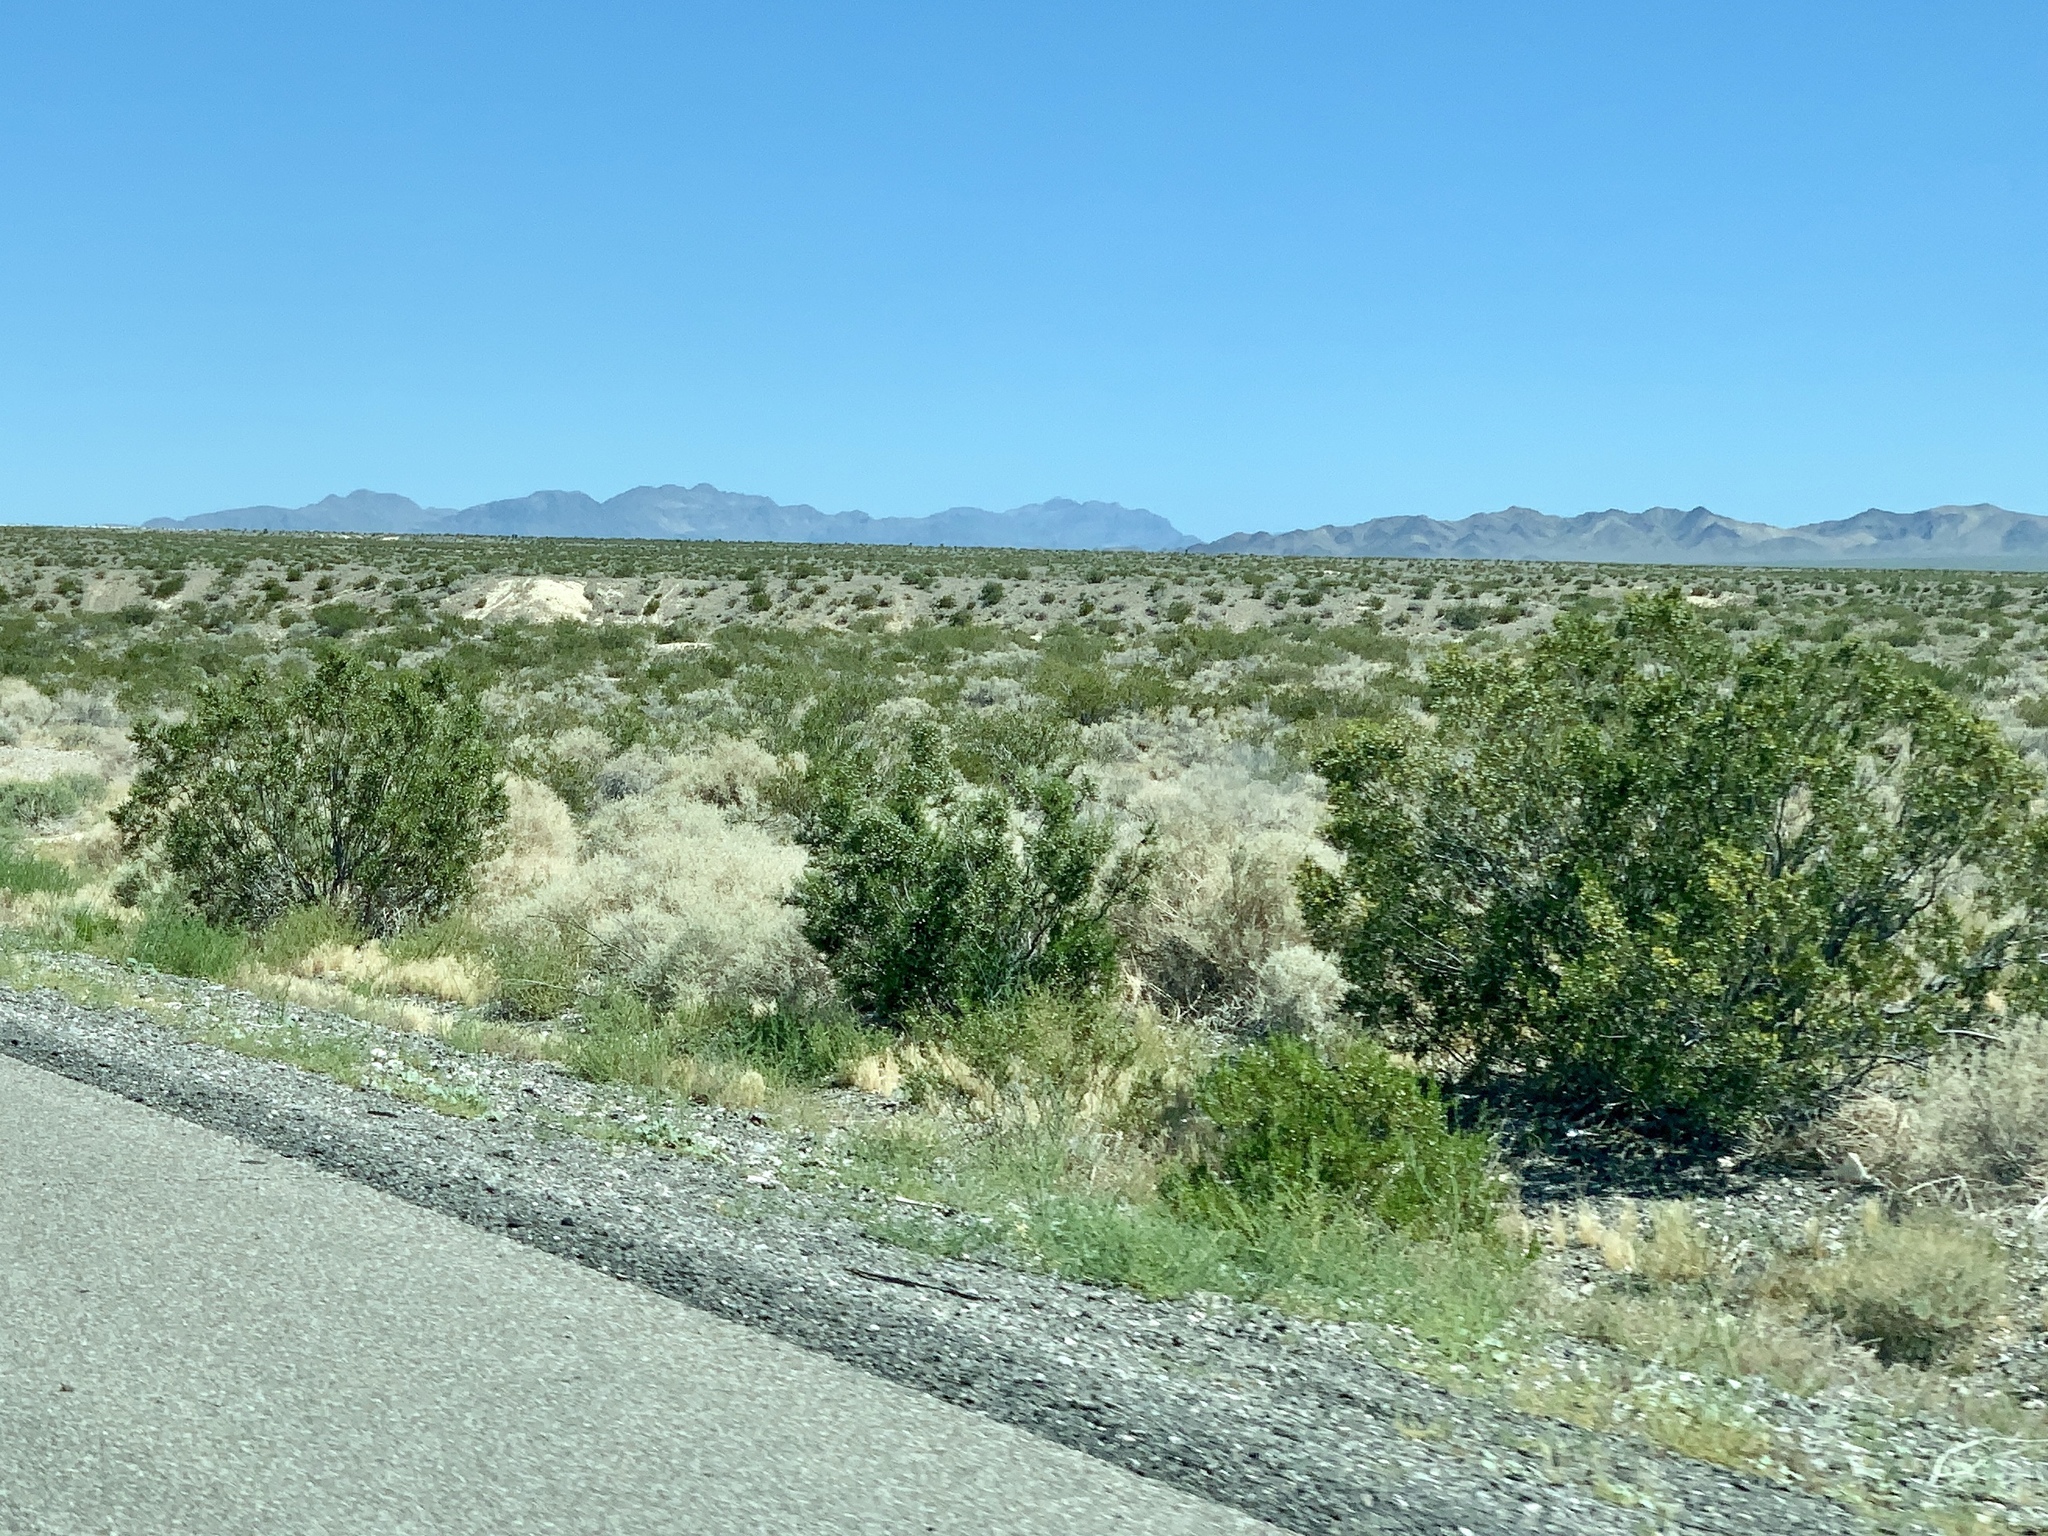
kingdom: Plantae
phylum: Tracheophyta
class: Magnoliopsida
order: Zygophyllales
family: Zygophyllaceae
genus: Larrea
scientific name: Larrea tridentata
